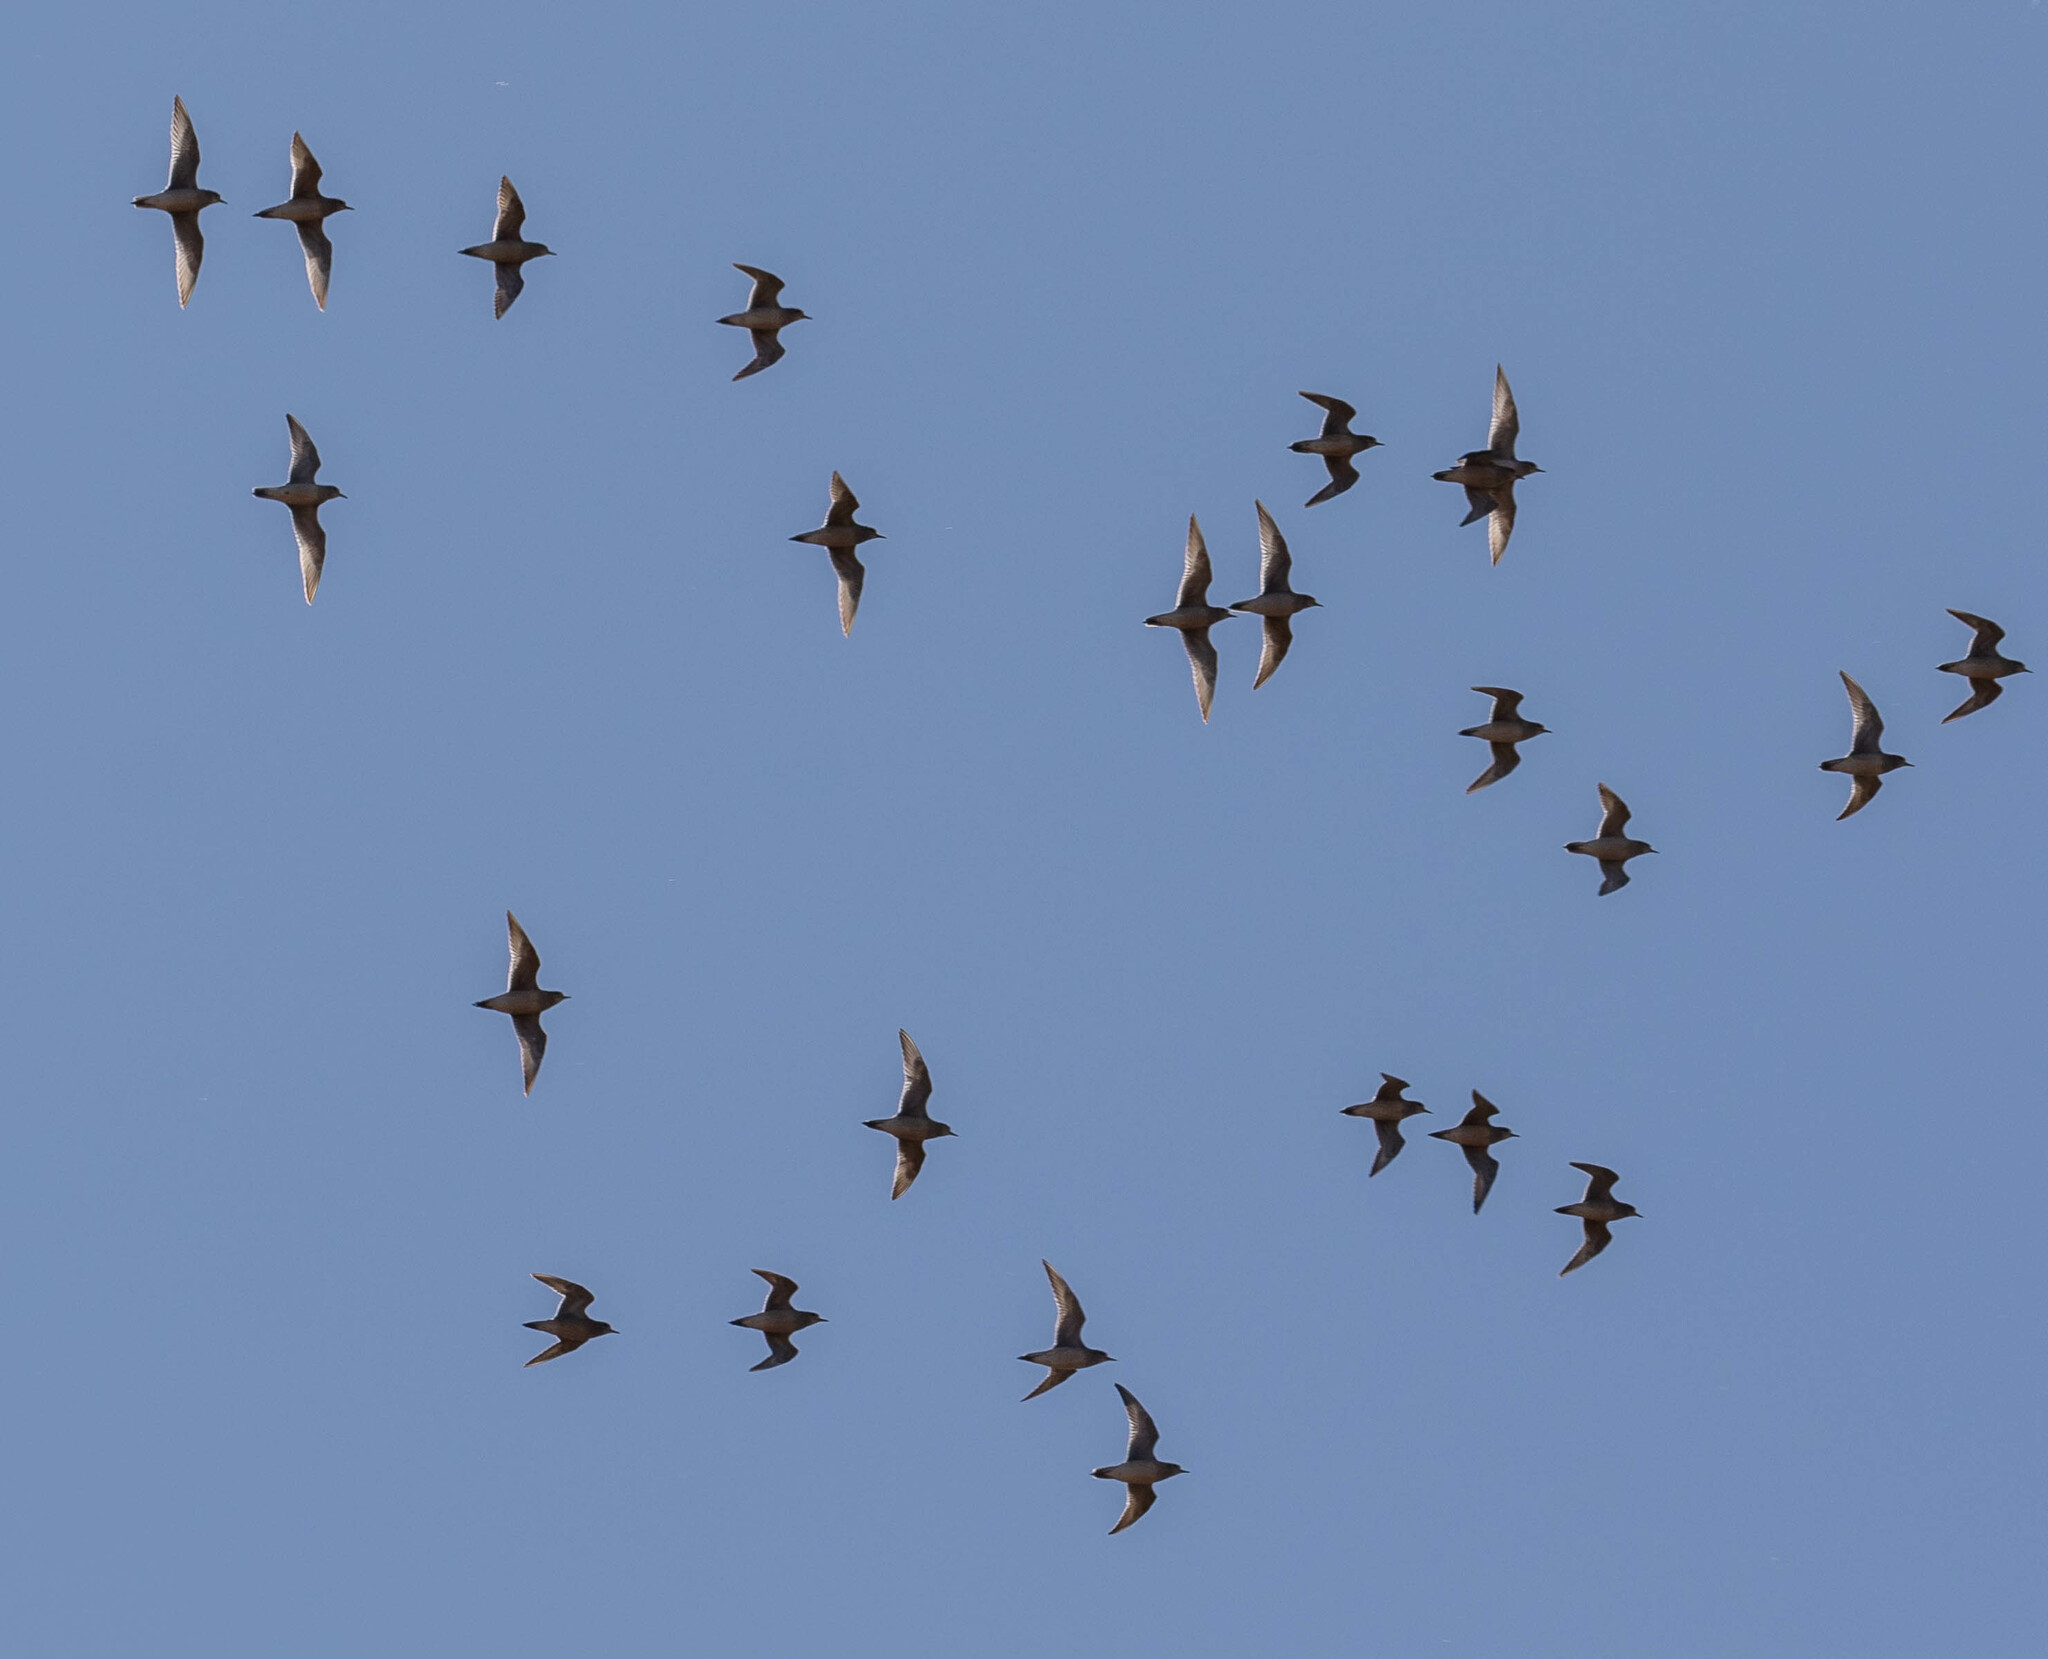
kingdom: Animalia
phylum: Chordata
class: Aves
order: Charadriiformes
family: Charadriidae
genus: Pluvialis
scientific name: Pluvialis dominica
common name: American golden plover
